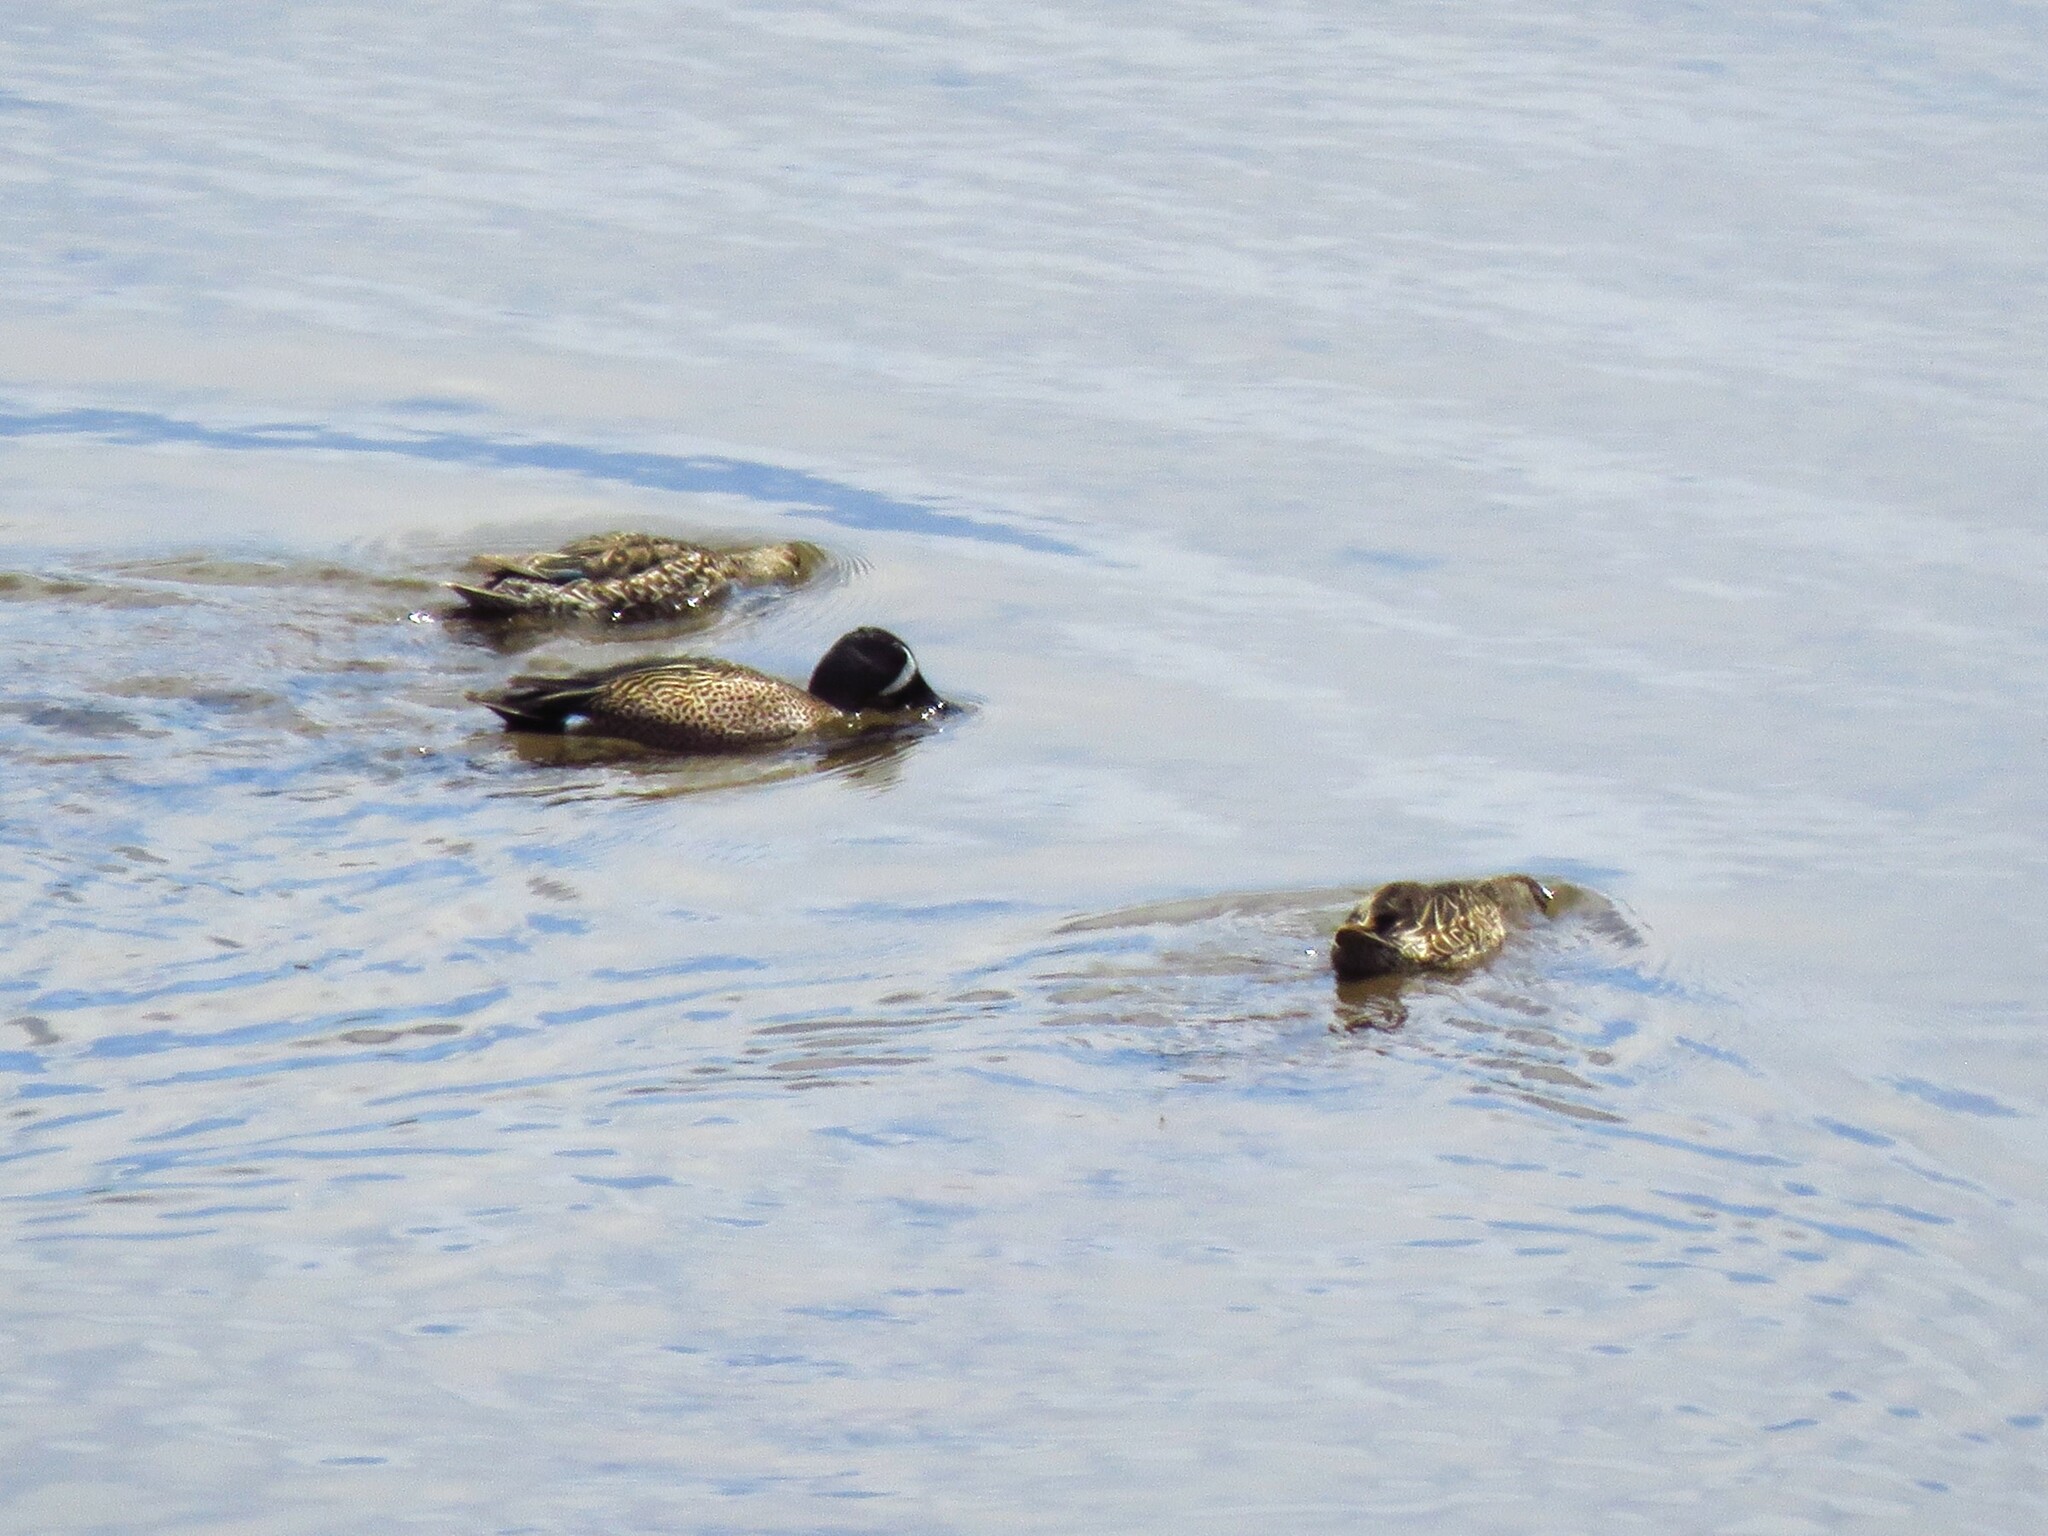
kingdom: Animalia
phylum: Chordata
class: Aves
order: Anseriformes
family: Anatidae
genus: Spatula
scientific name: Spatula discors
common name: Blue-winged teal
